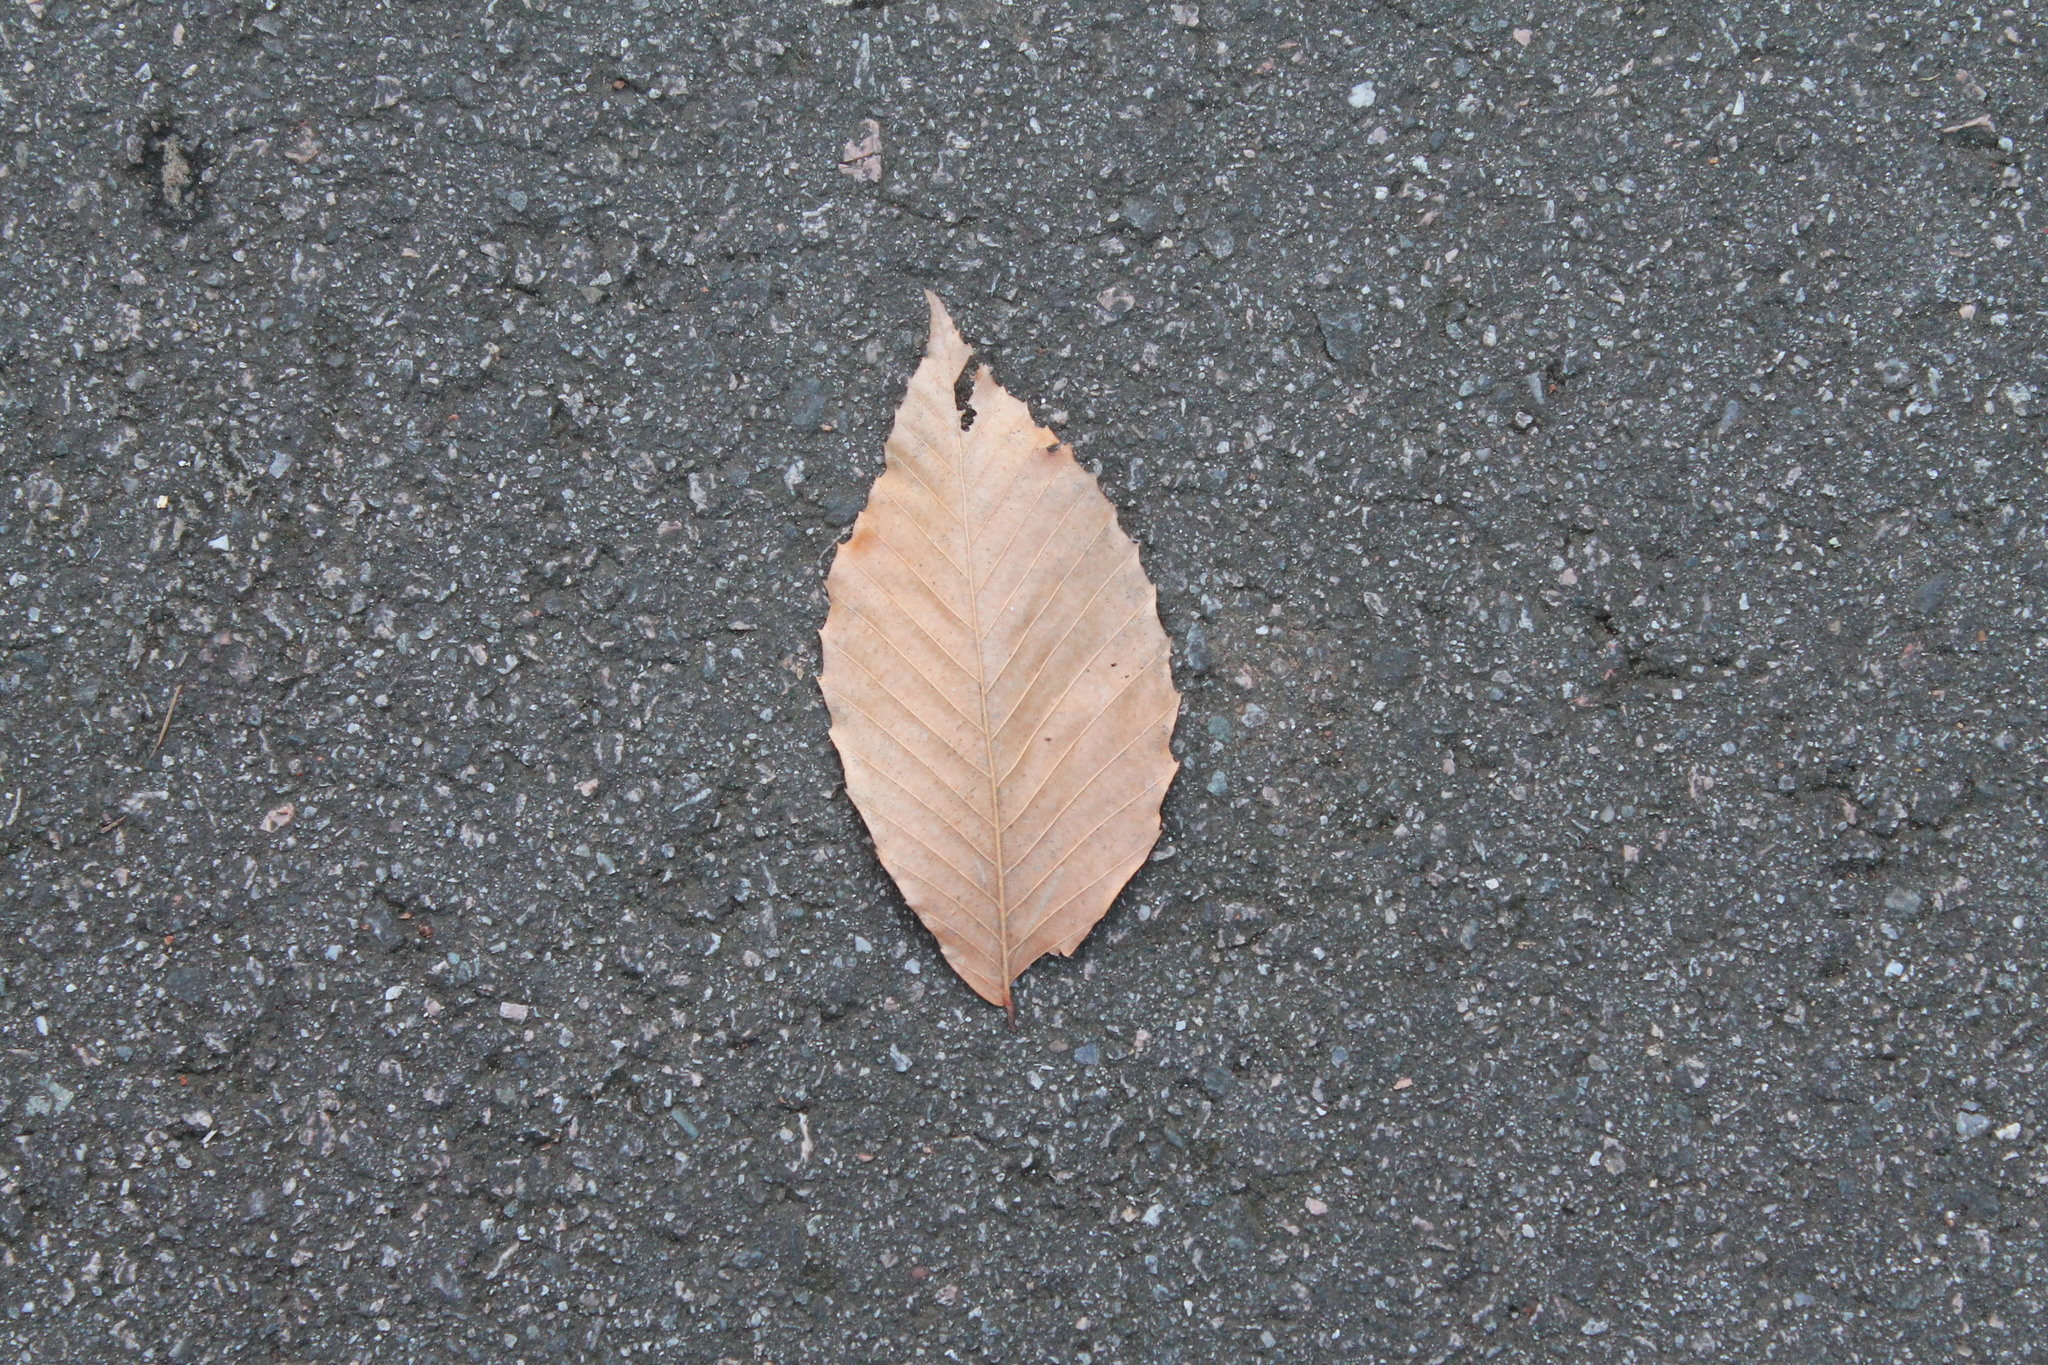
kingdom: Plantae
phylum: Tracheophyta
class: Magnoliopsida
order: Fagales
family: Fagaceae
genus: Fagus
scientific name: Fagus grandifolia
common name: American beech
